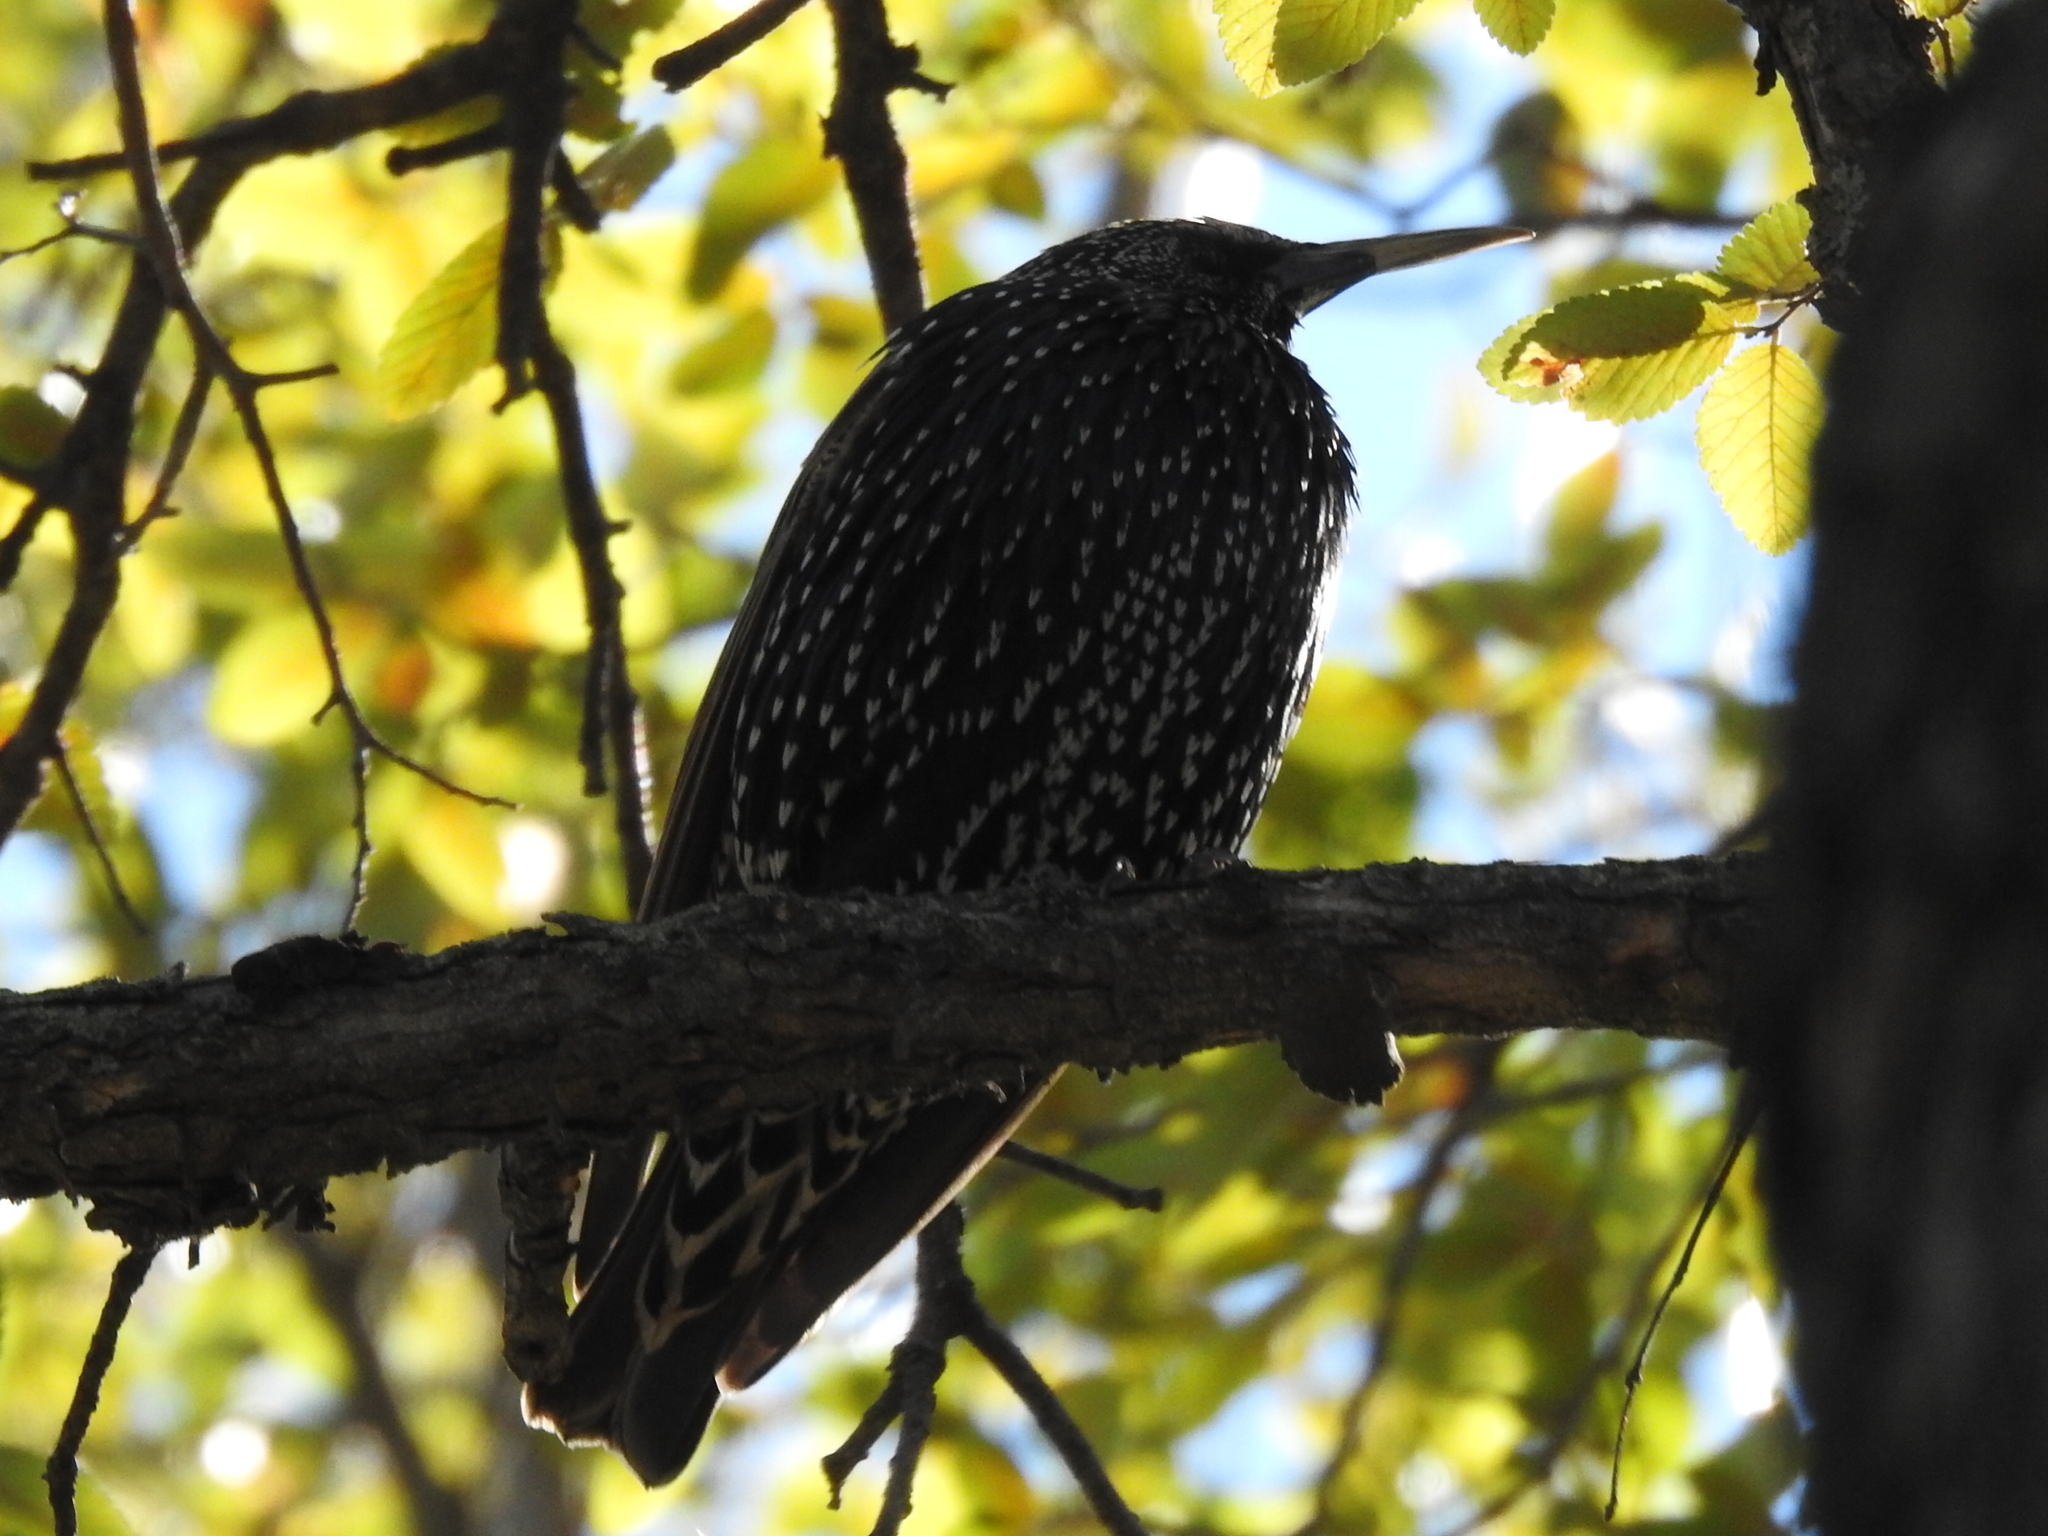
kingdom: Animalia
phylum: Chordata
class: Aves
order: Passeriformes
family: Sturnidae
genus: Sturnus
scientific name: Sturnus vulgaris
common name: Common starling
